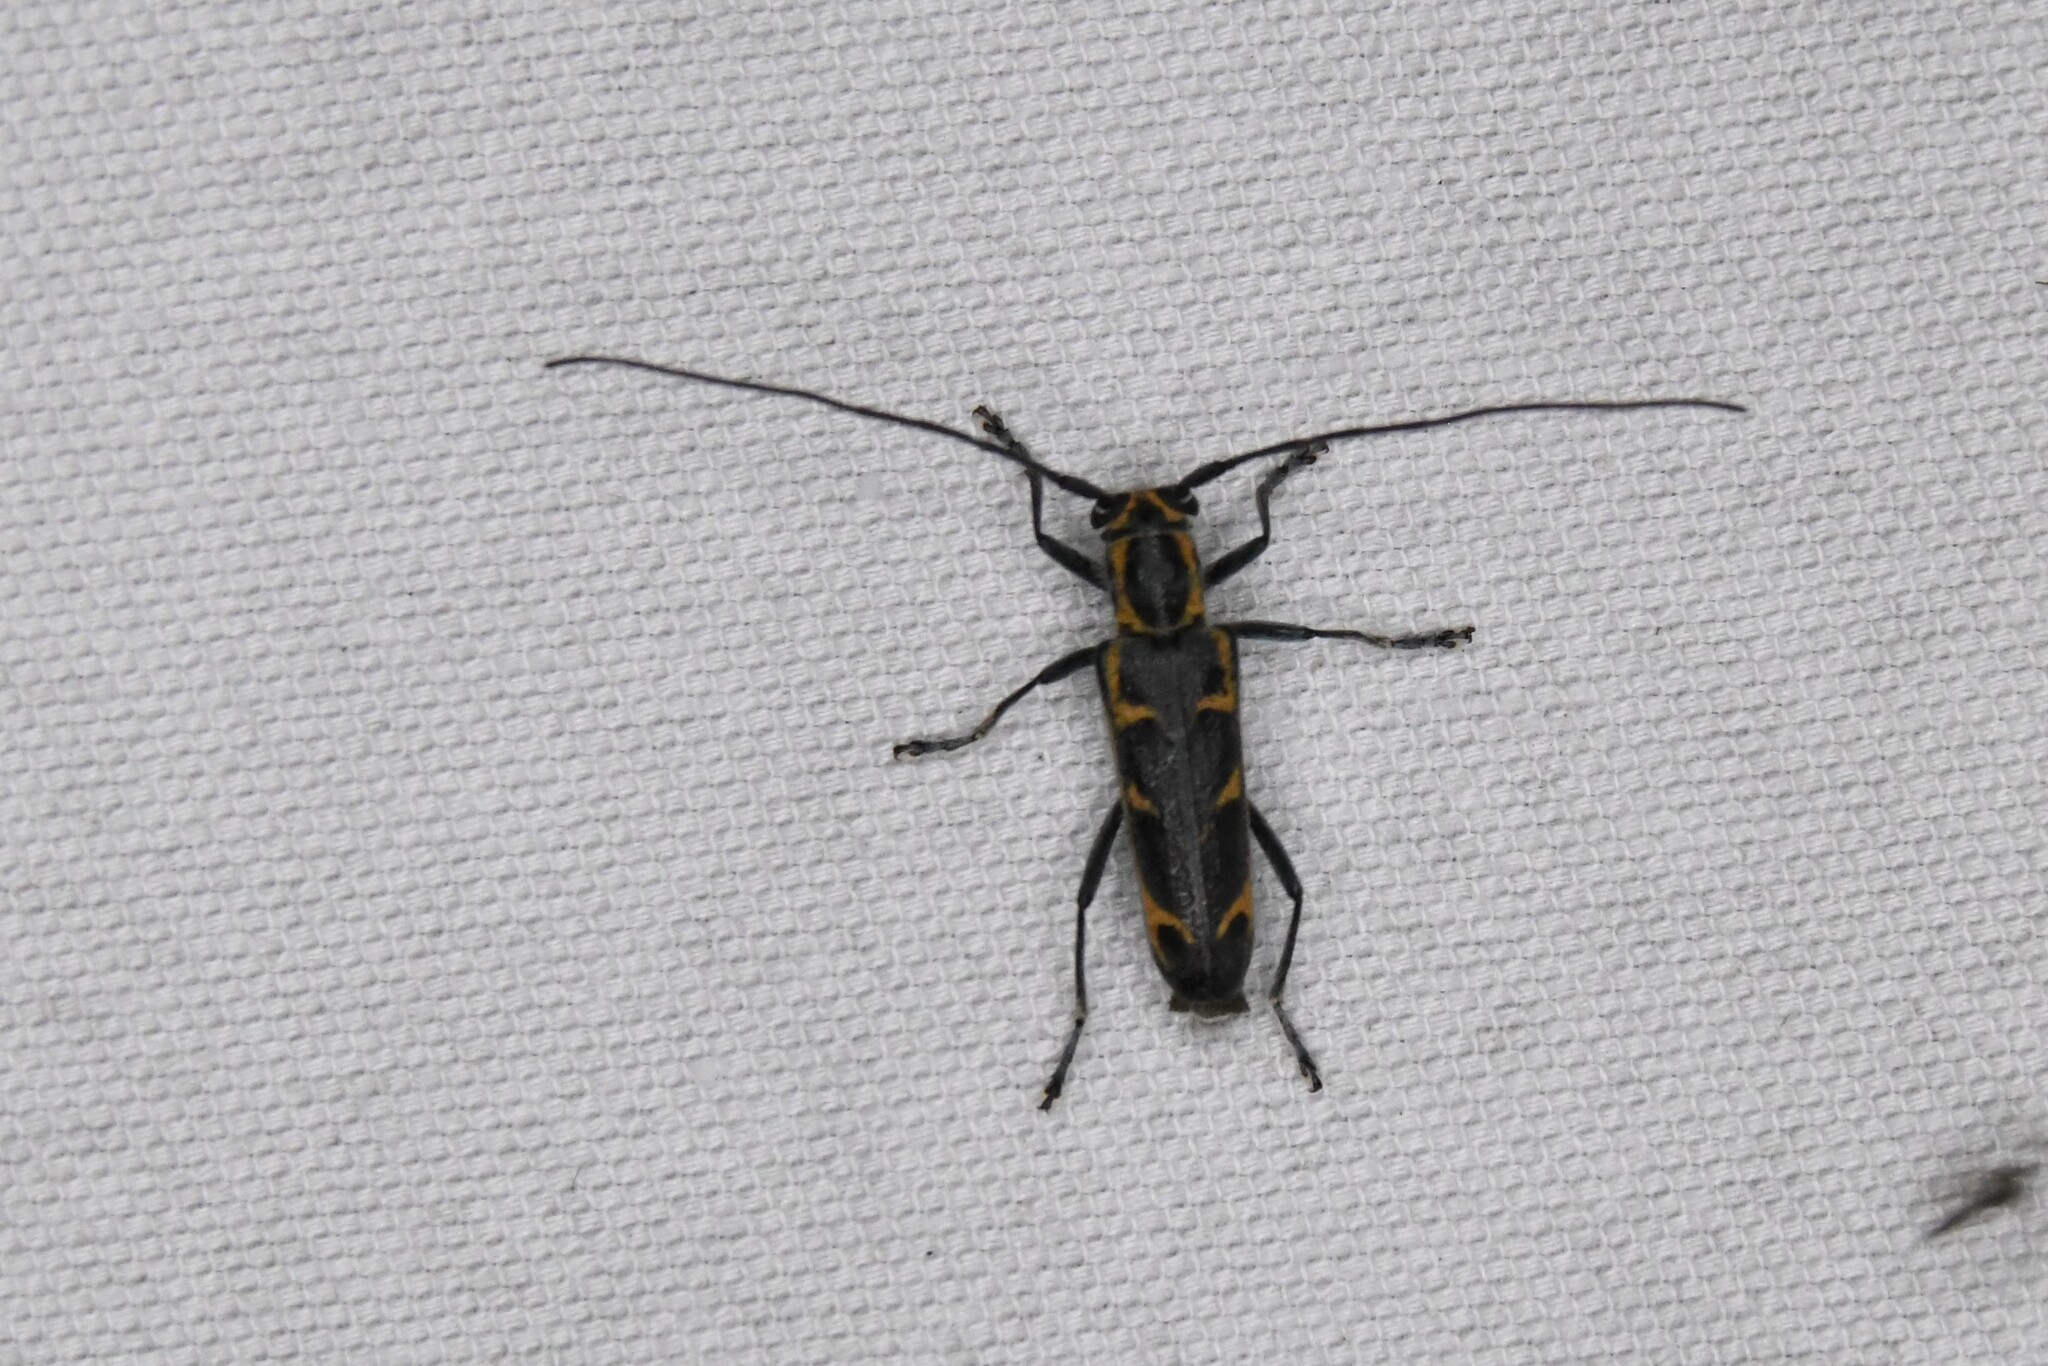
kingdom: Animalia
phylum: Arthropoda
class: Insecta
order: Coleoptera
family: Cerambycidae
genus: Saperda
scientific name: Saperda tridentata
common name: Elm borer
